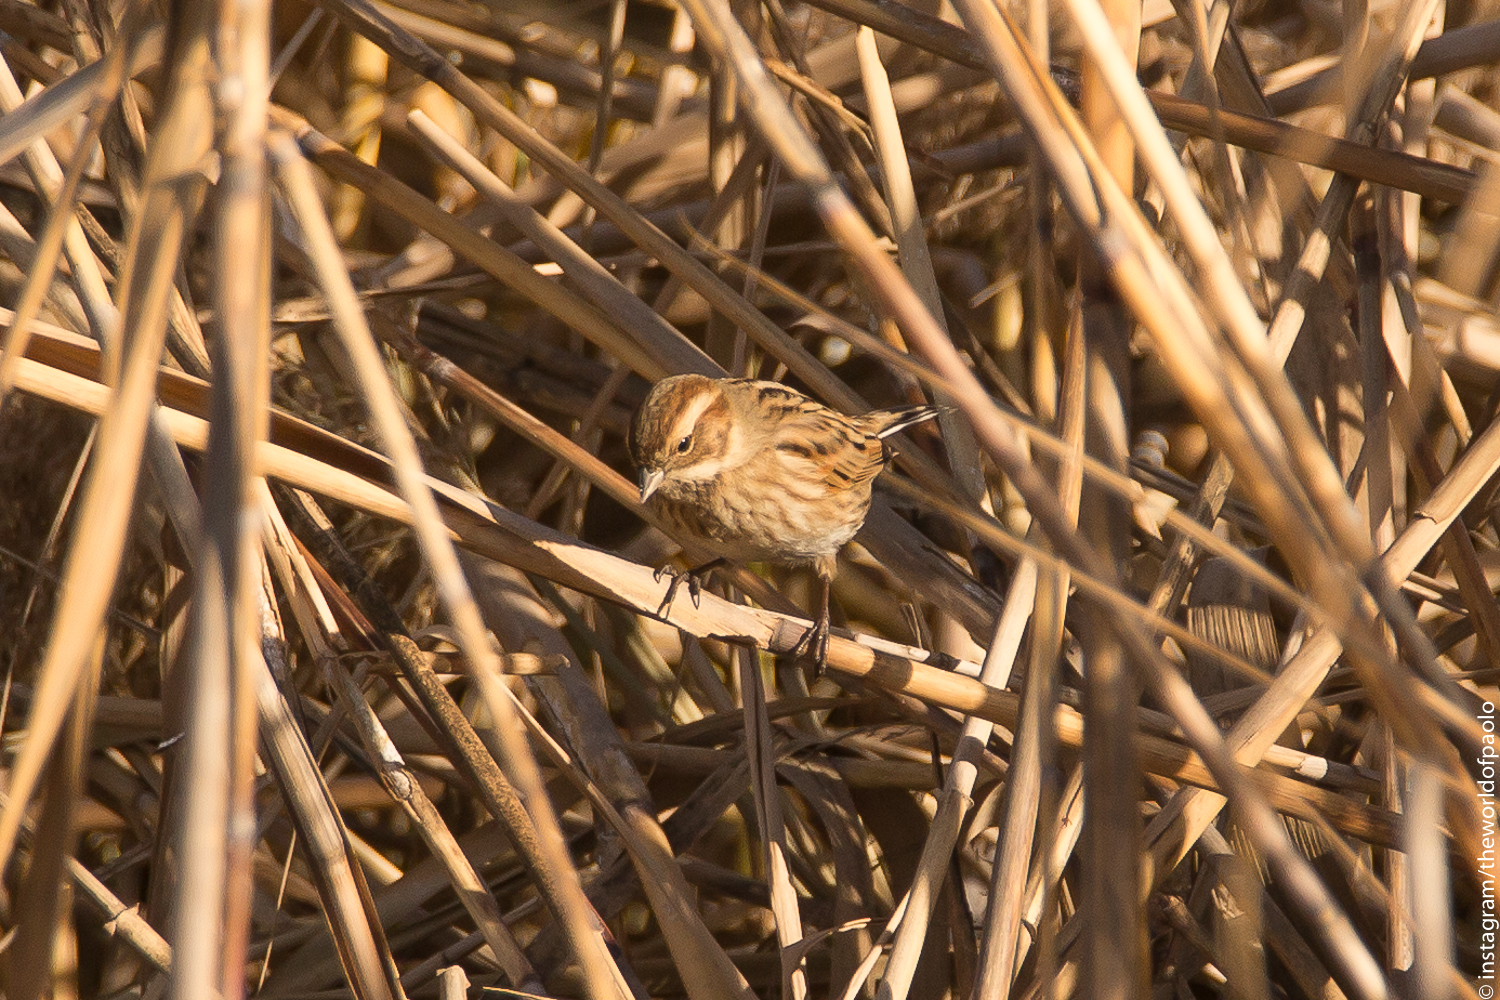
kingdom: Animalia
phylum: Chordata
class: Aves
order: Passeriformes
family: Emberizidae
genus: Emberiza
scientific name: Emberiza schoeniclus
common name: Reed bunting
